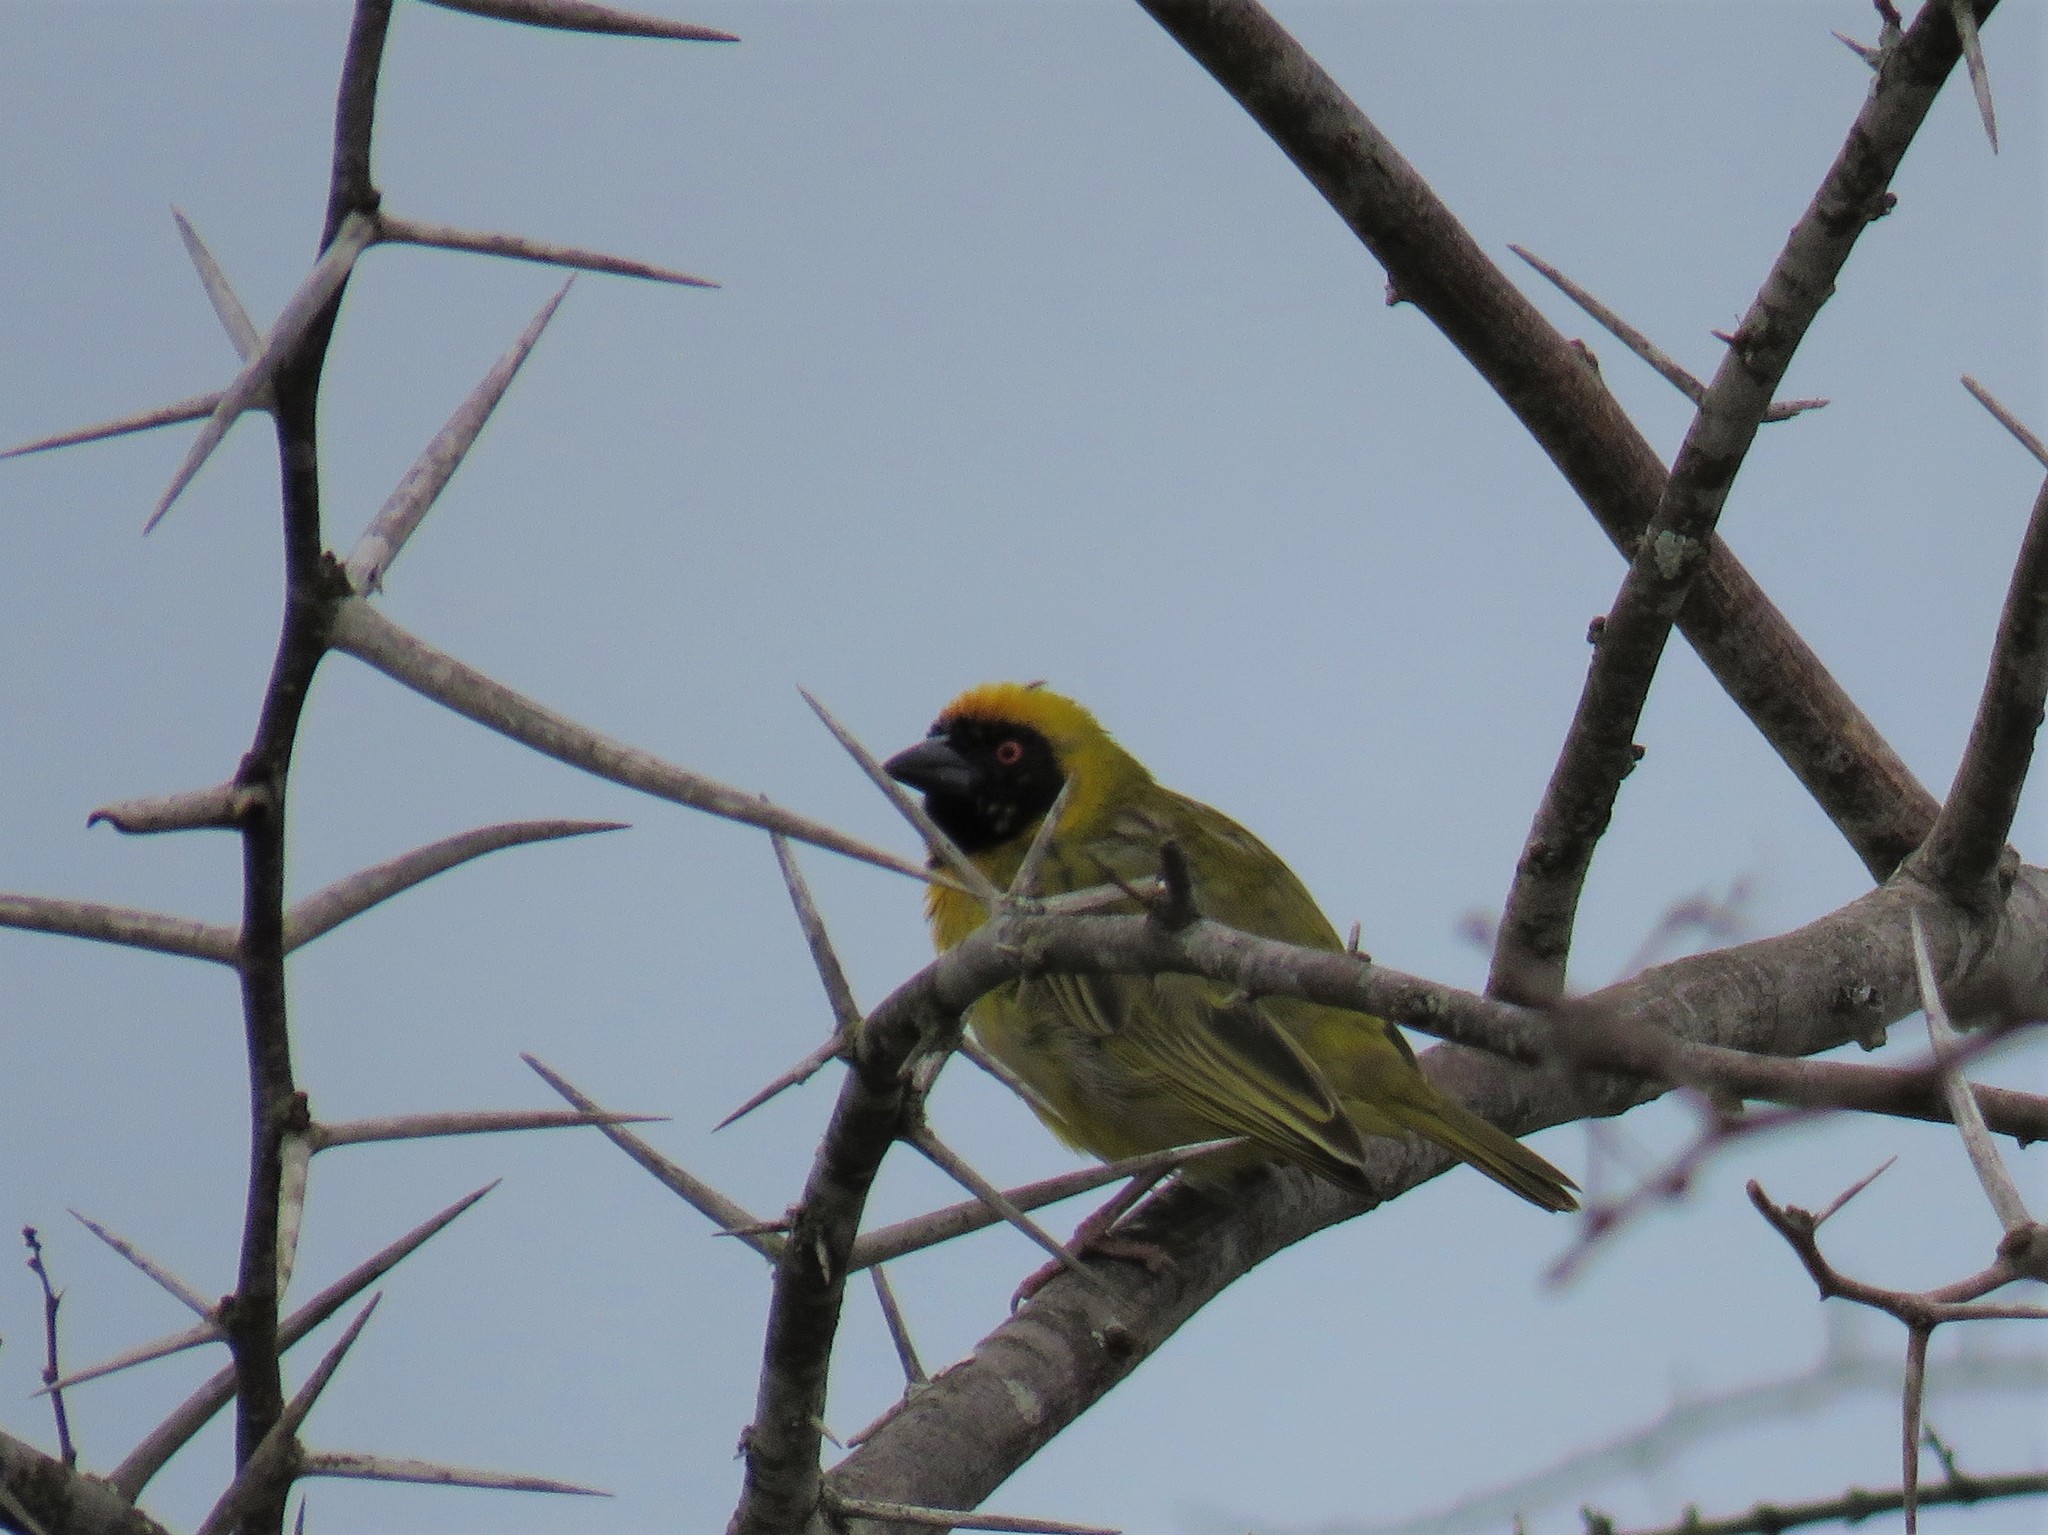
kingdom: Animalia
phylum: Chordata
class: Aves
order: Passeriformes
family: Ploceidae
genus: Ploceus
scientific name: Ploceus velatus
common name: Southern masked weaver
